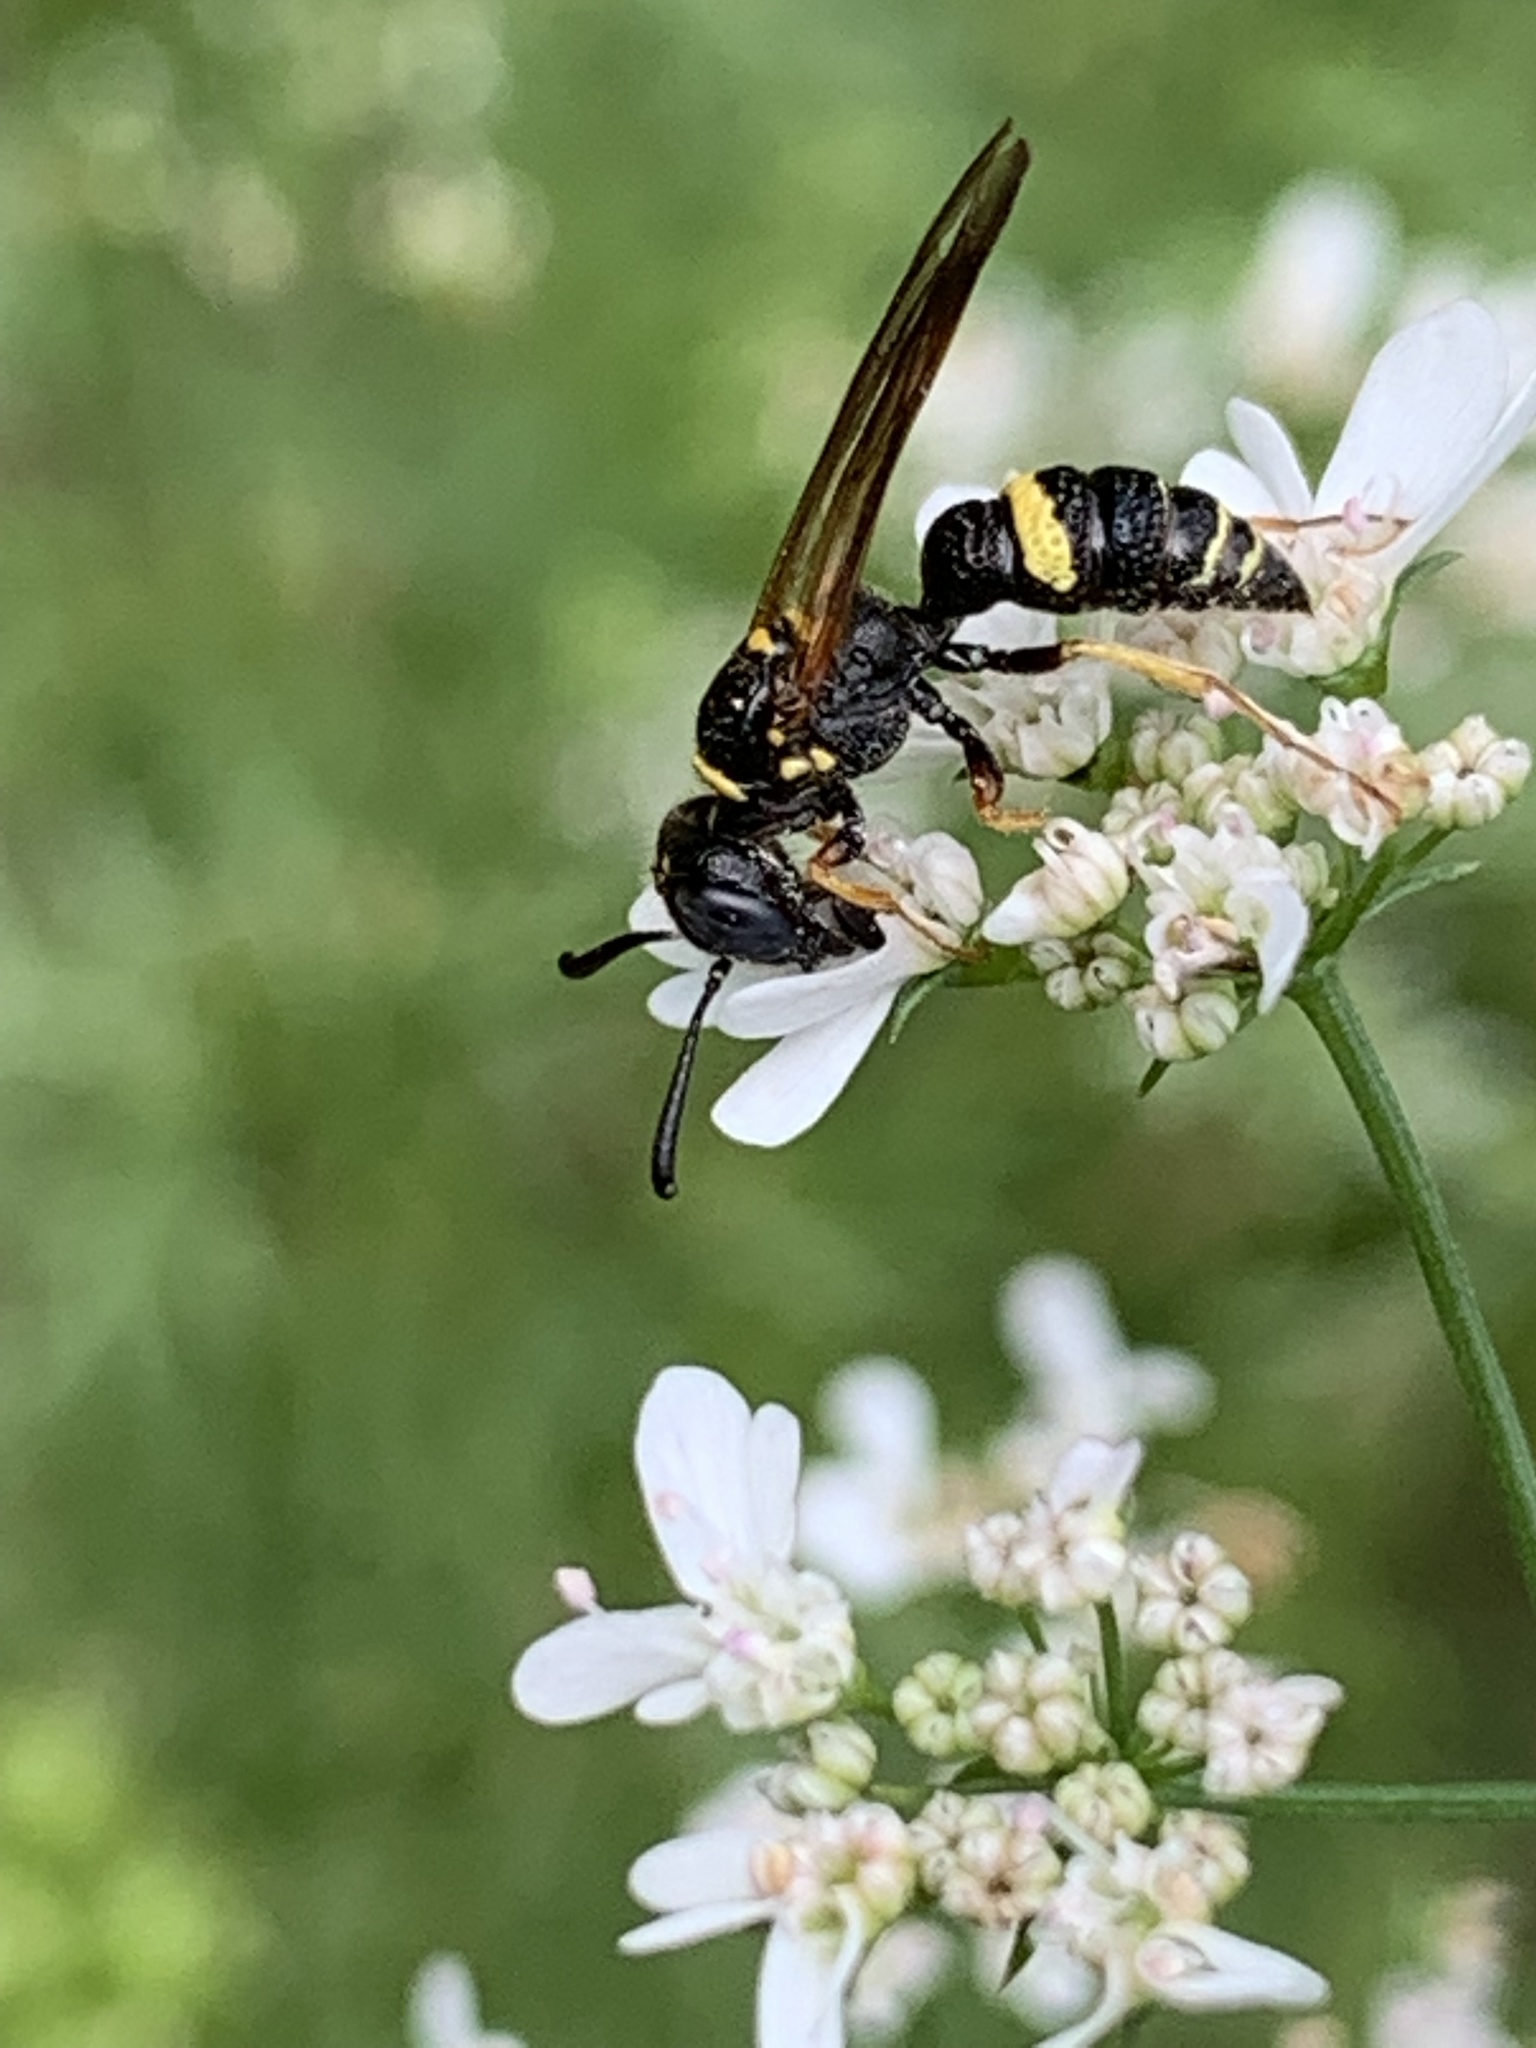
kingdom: Animalia
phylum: Arthropoda
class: Insecta
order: Hymenoptera
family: Crabronidae
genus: Philanthus
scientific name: Philanthus gibbosus
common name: Humped beewolf
